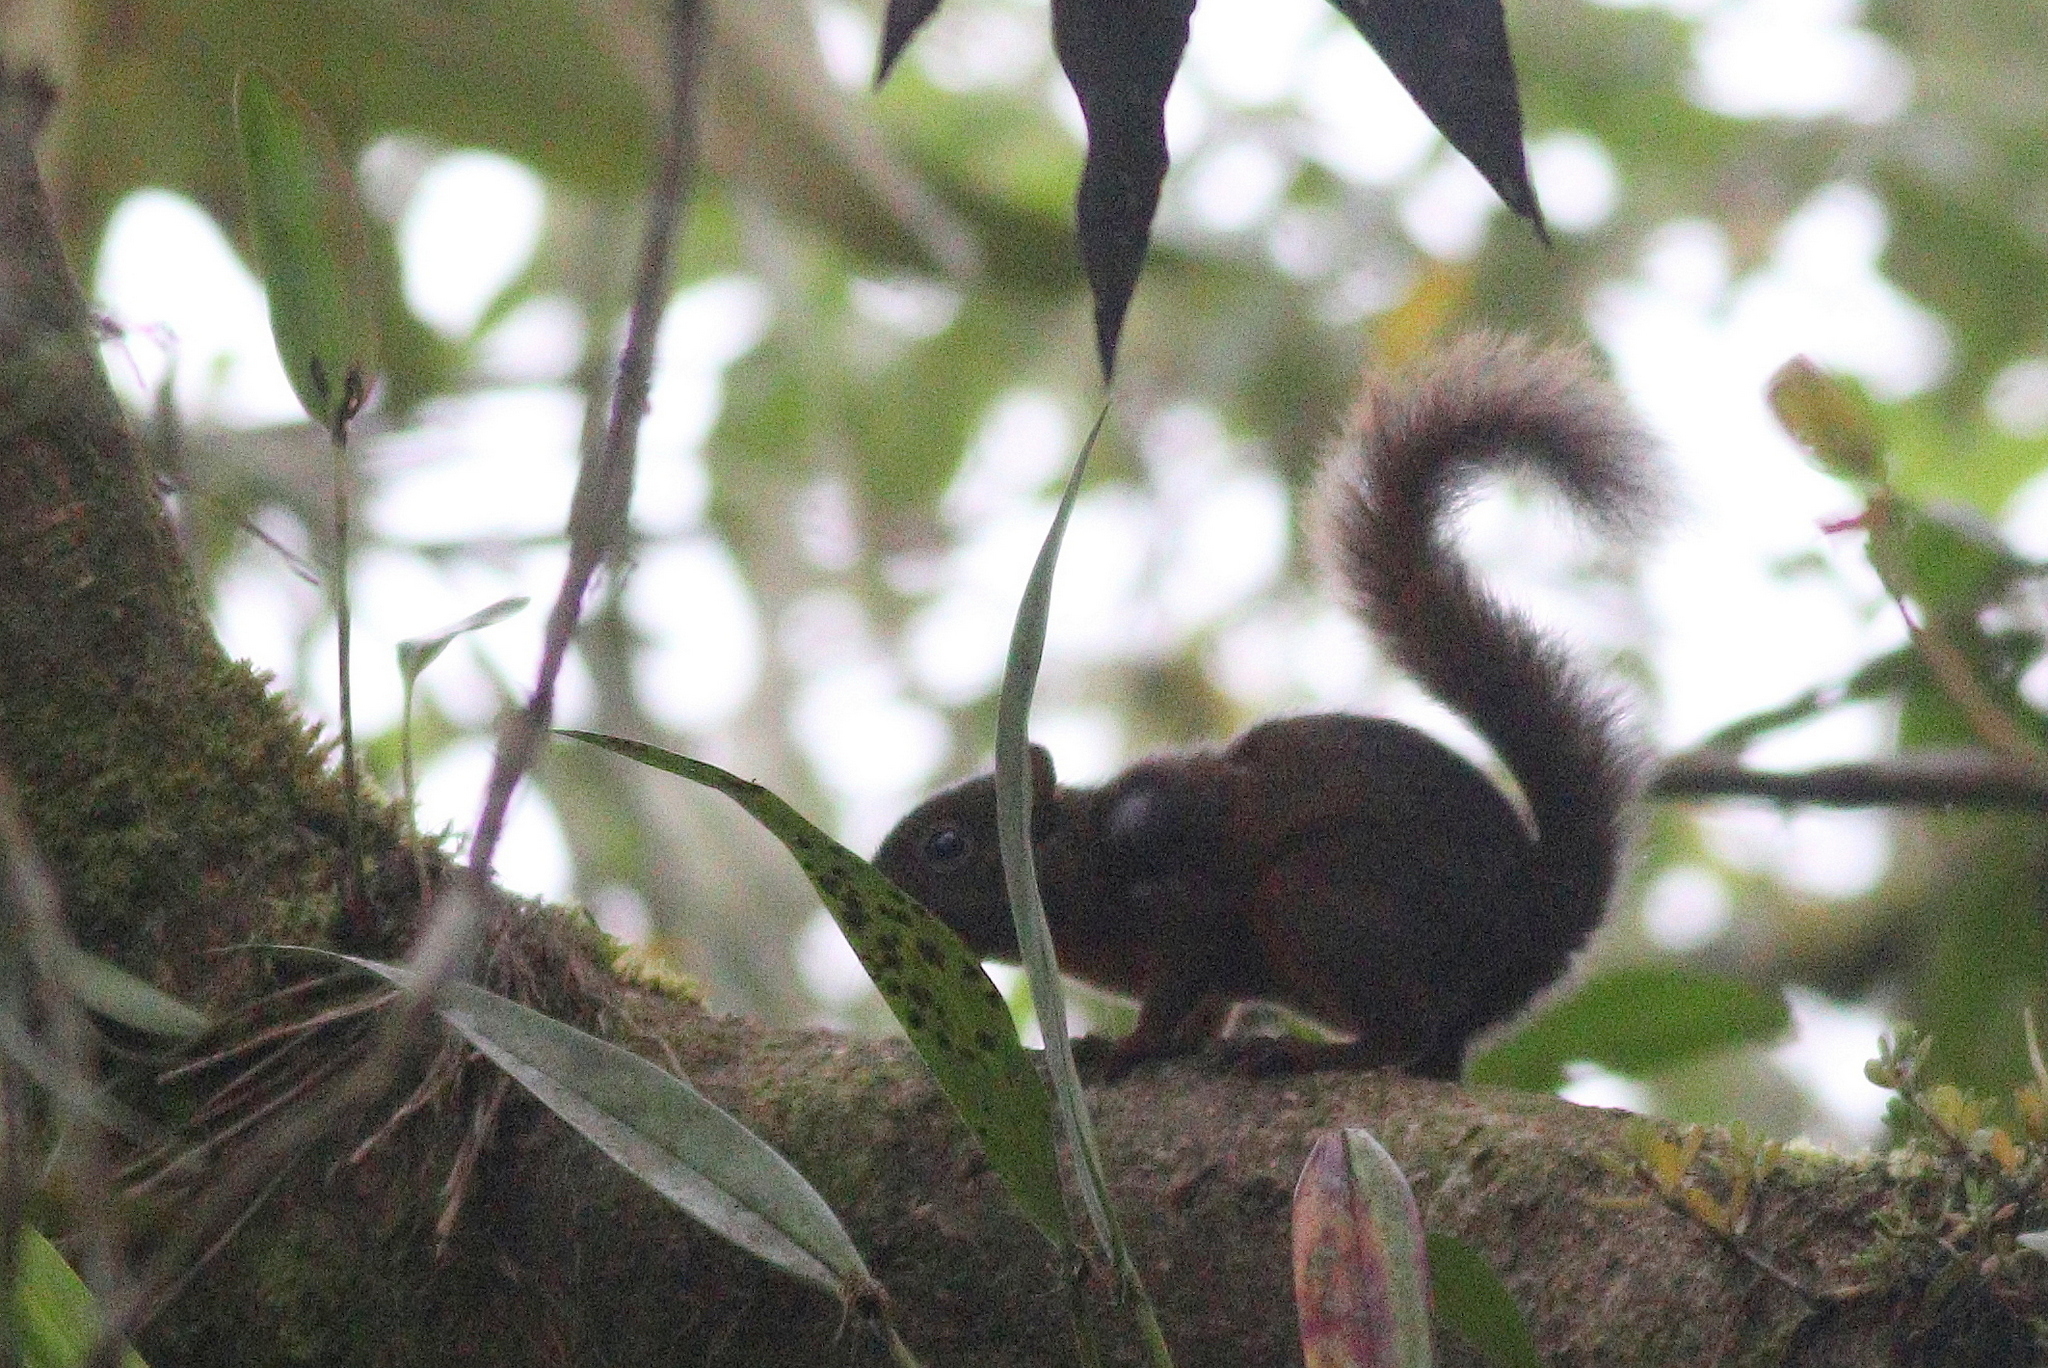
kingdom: Animalia
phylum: Chordata
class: Mammalia
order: Rodentia
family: Sciuridae
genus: Sciurus
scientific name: Sciurus granatensis
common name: Red-tailed squirrel
